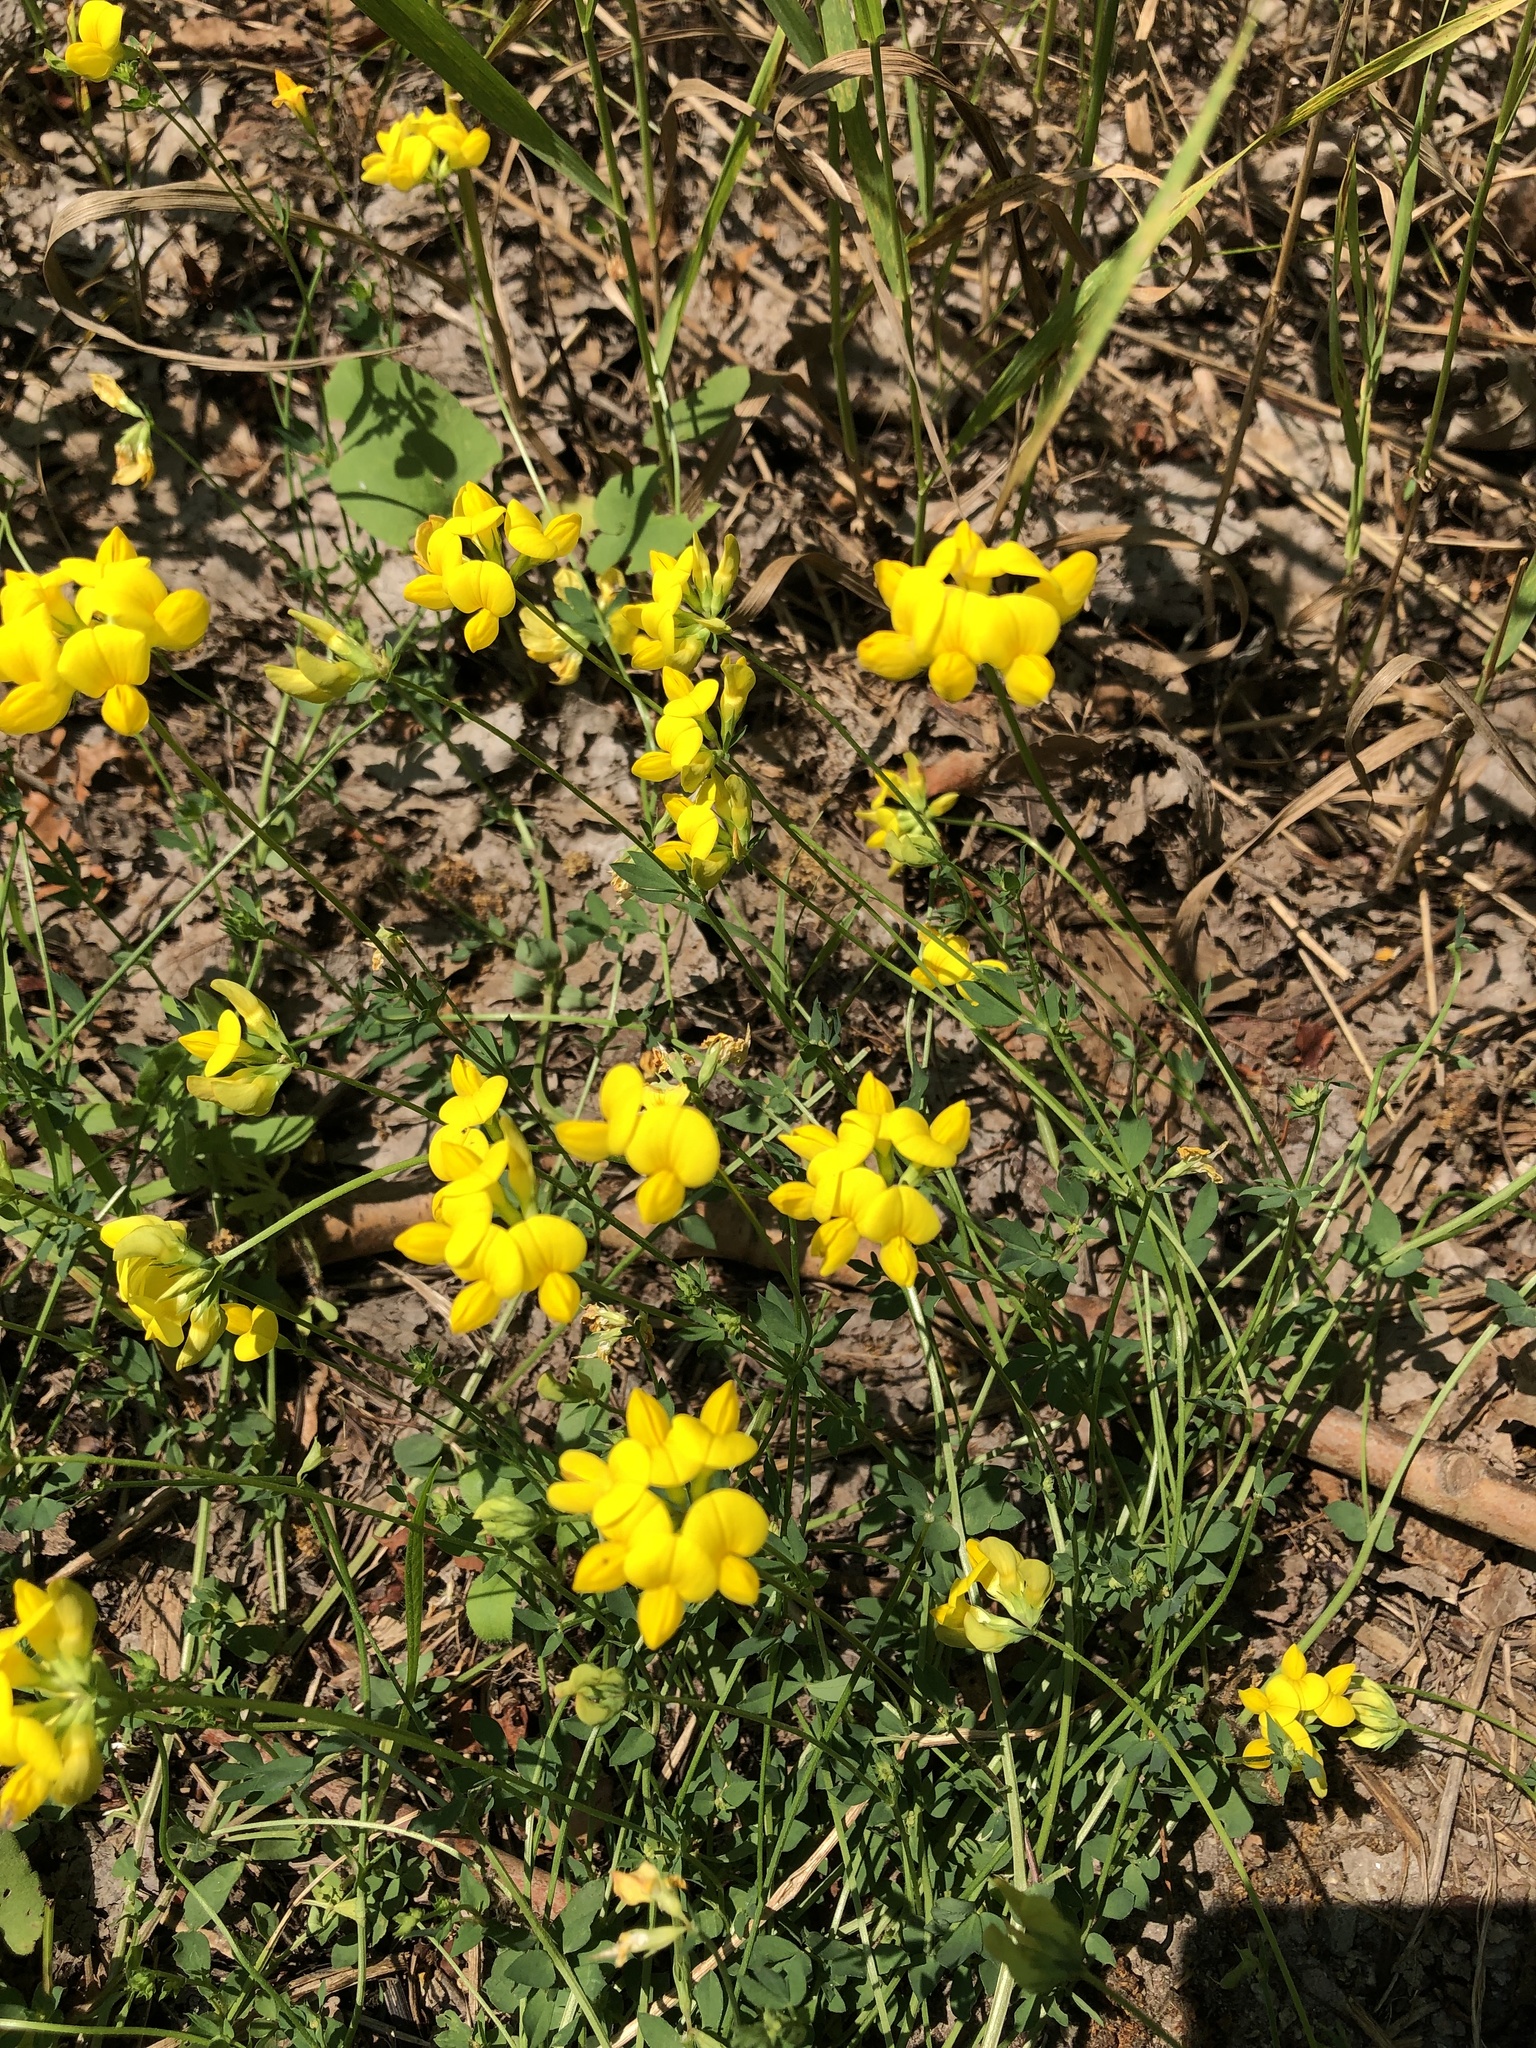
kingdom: Plantae
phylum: Tracheophyta
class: Magnoliopsida
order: Fabales
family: Fabaceae
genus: Lotus
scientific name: Lotus corniculatus
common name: Common bird's-foot-trefoil
